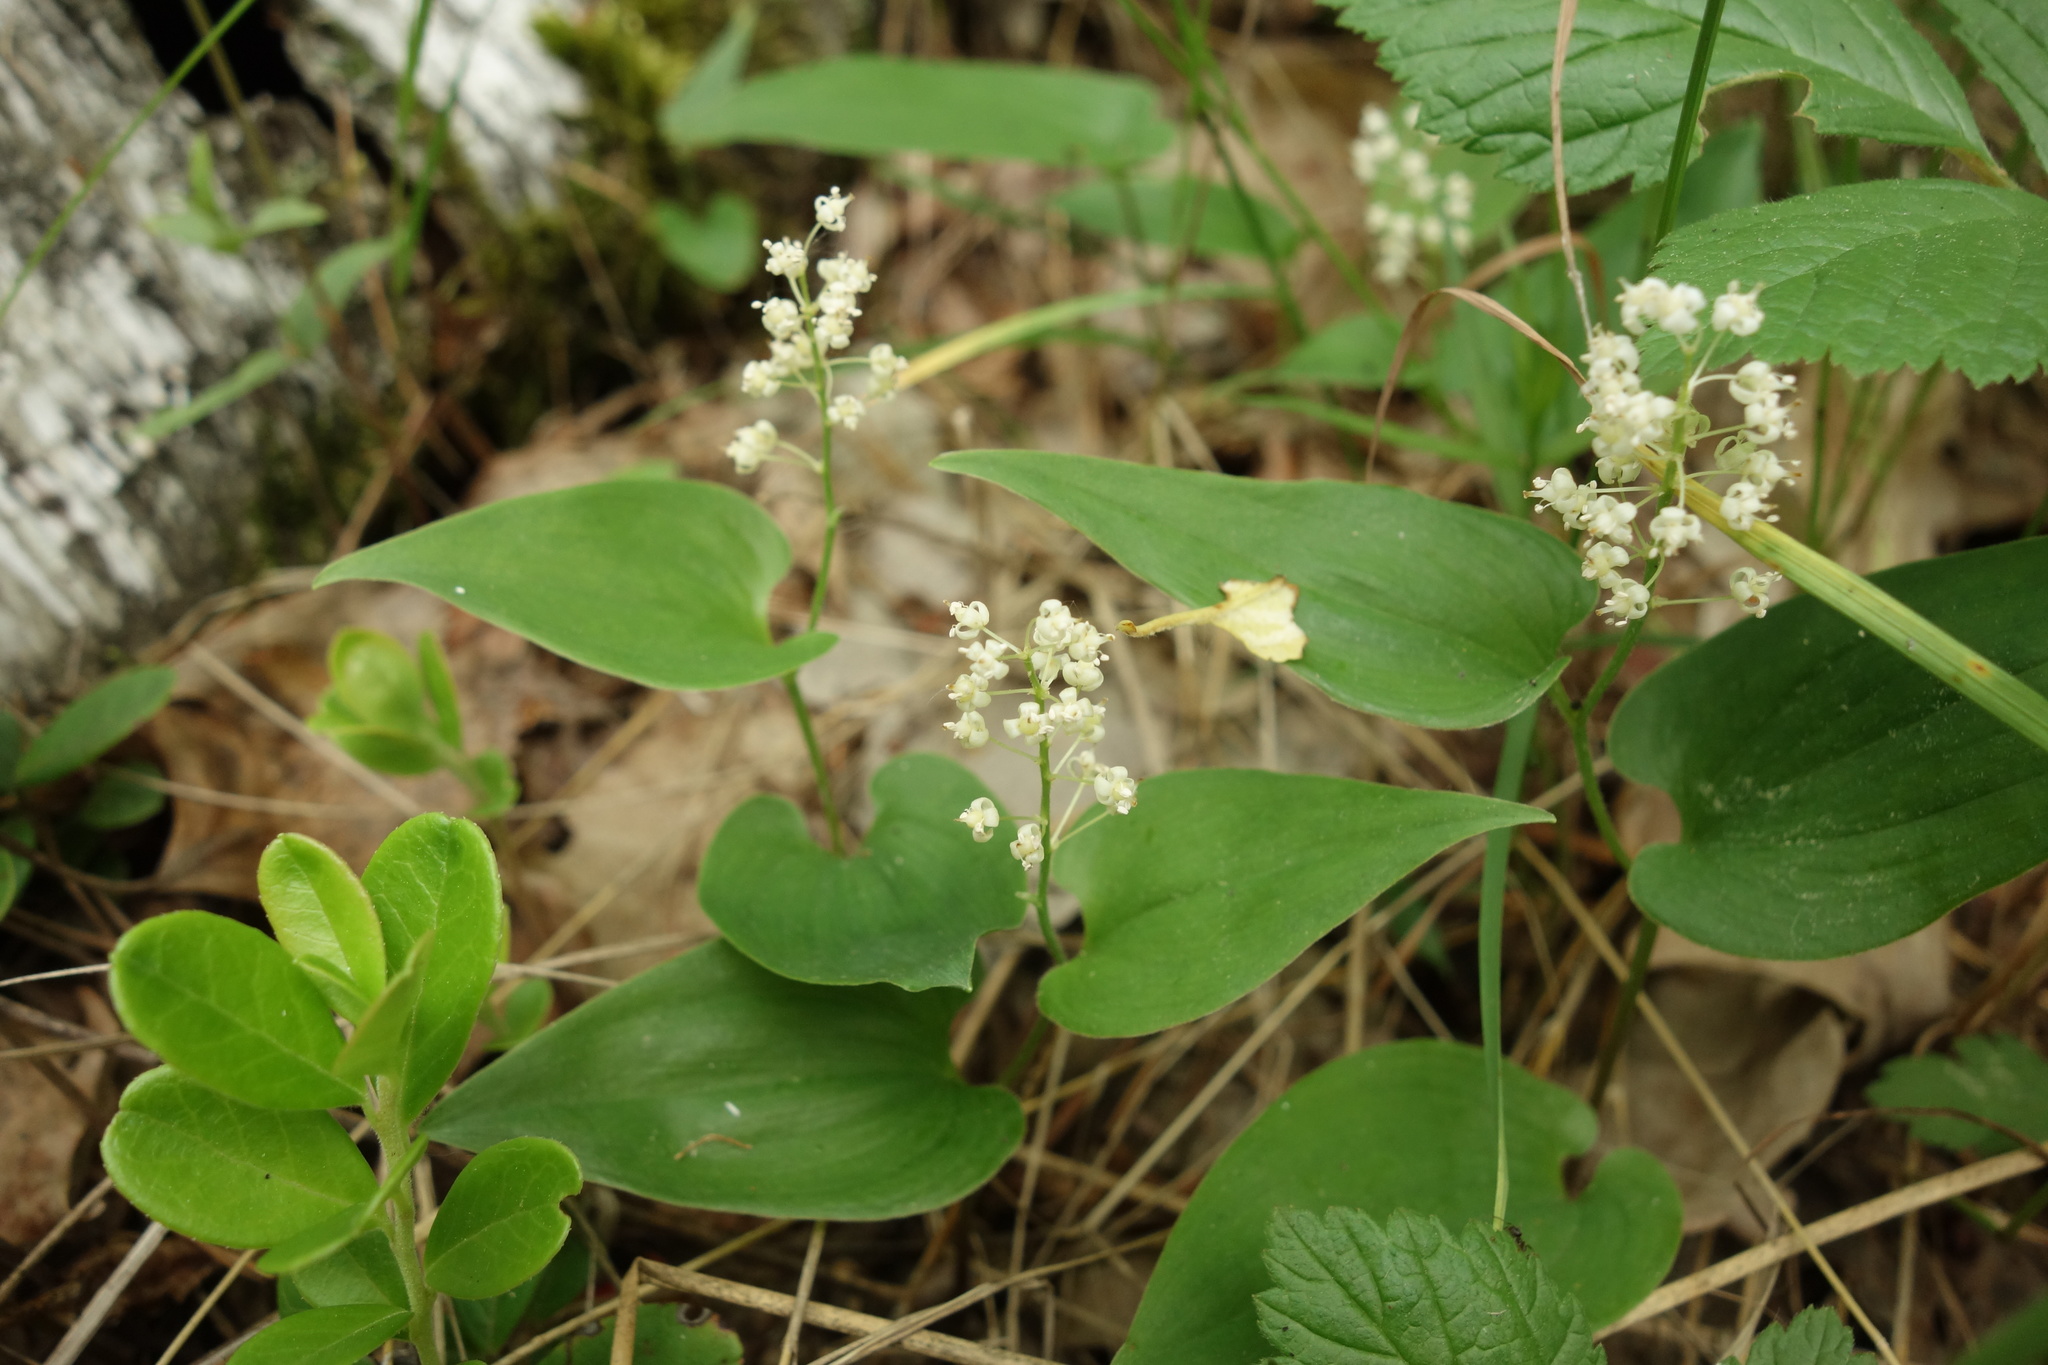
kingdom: Plantae
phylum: Tracheophyta
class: Liliopsida
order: Asparagales
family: Asparagaceae
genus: Maianthemum
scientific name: Maianthemum bifolium
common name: May lily
